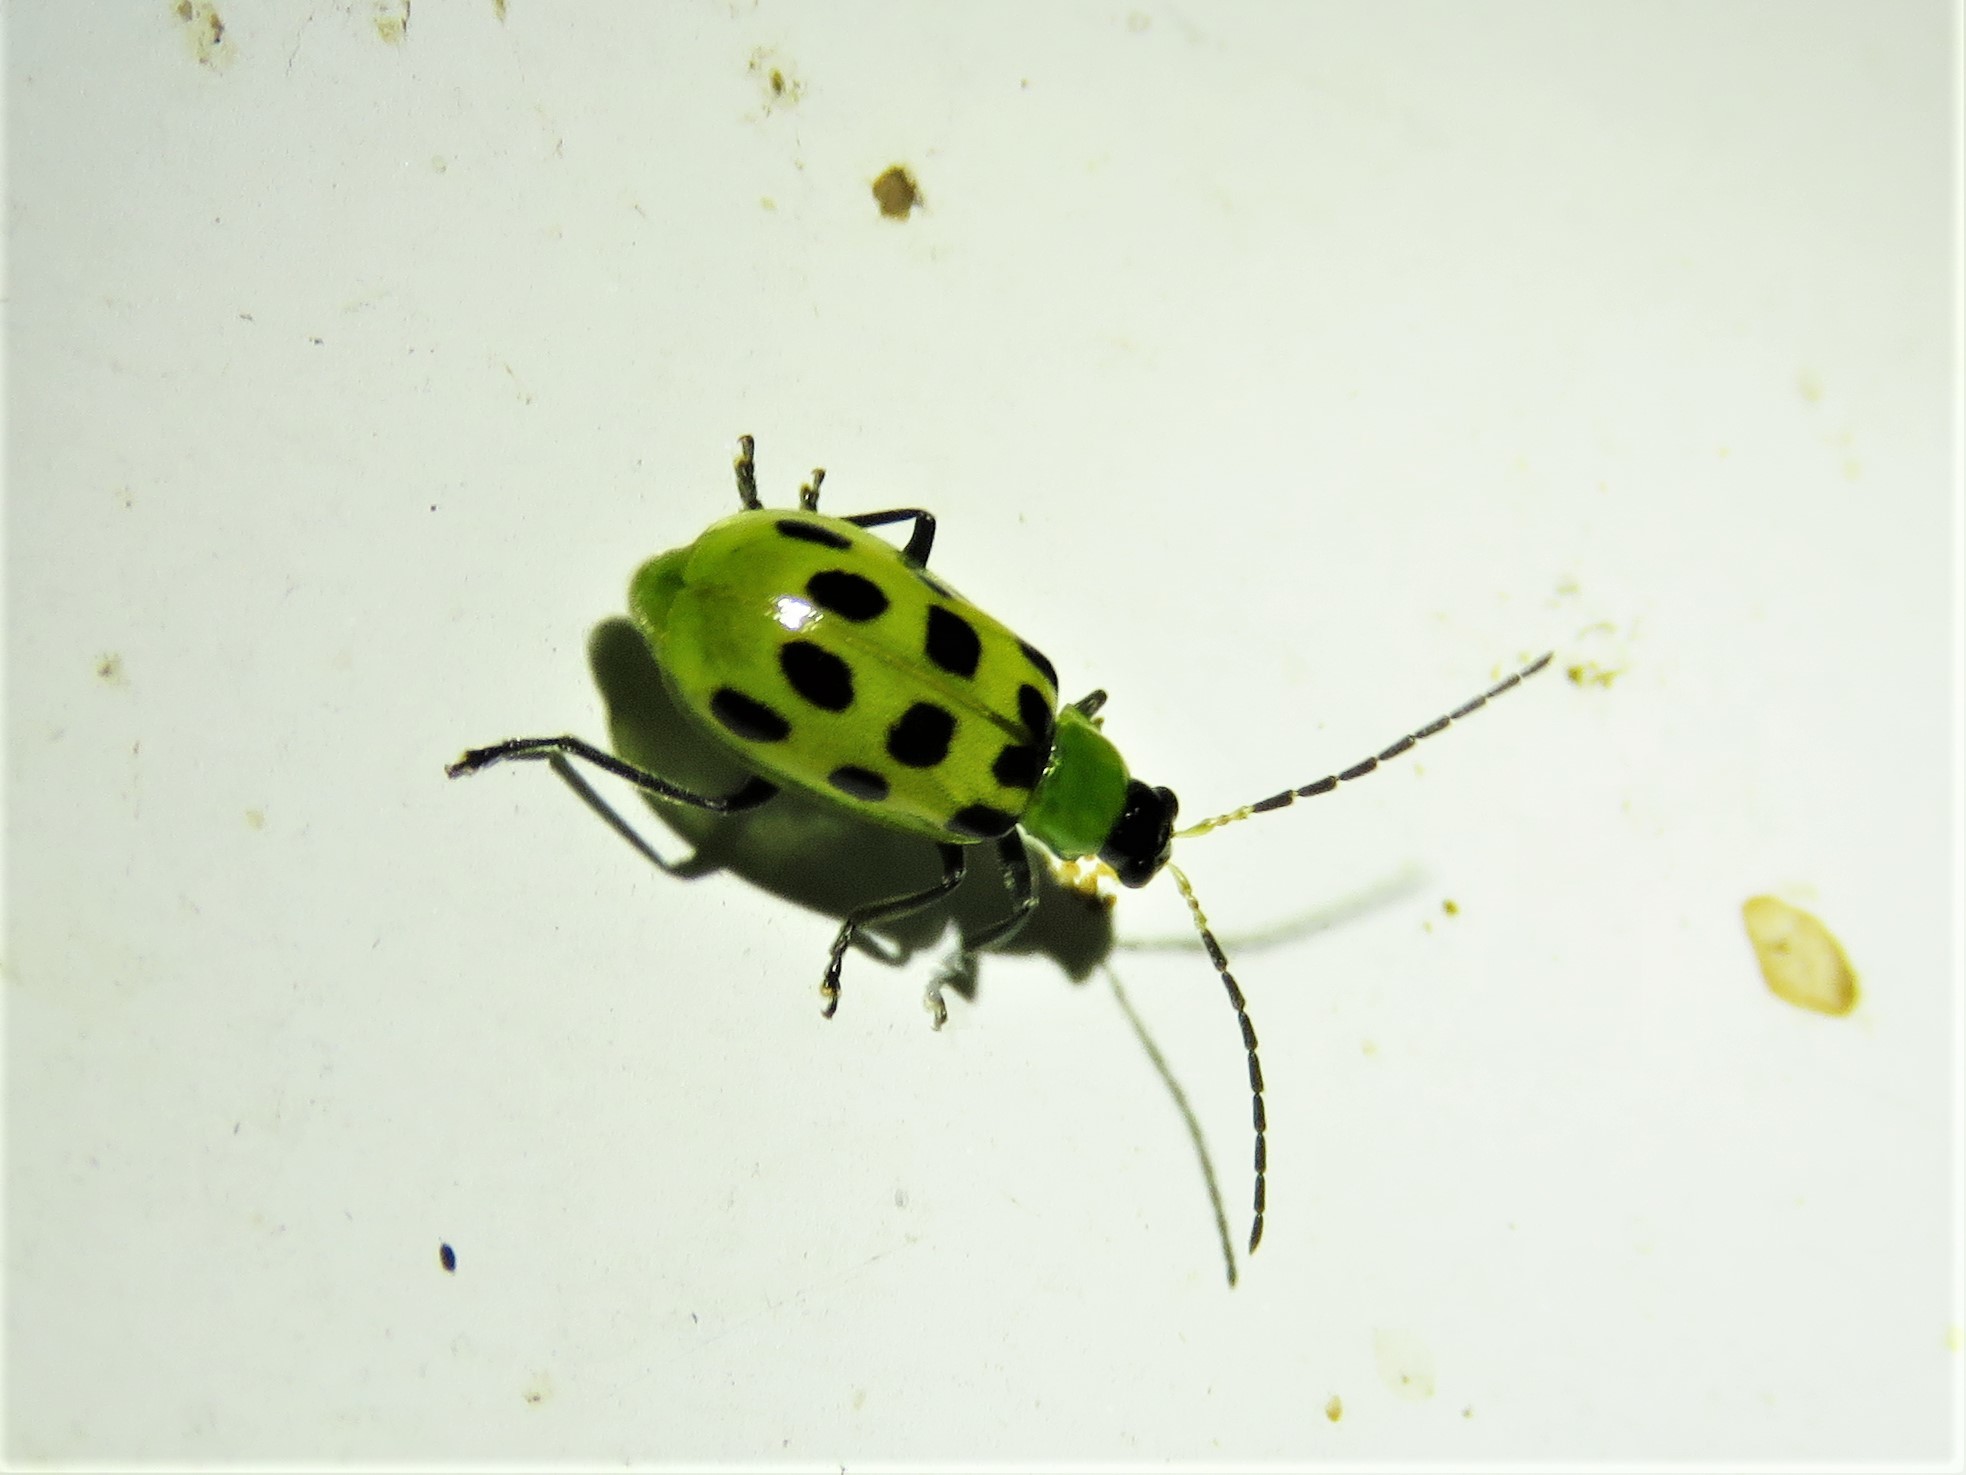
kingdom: Animalia
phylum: Arthropoda
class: Insecta
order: Coleoptera
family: Chrysomelidae
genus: Diabrotica
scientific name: Diabrotica undecimpunctata
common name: Spotted cucumber beetle
